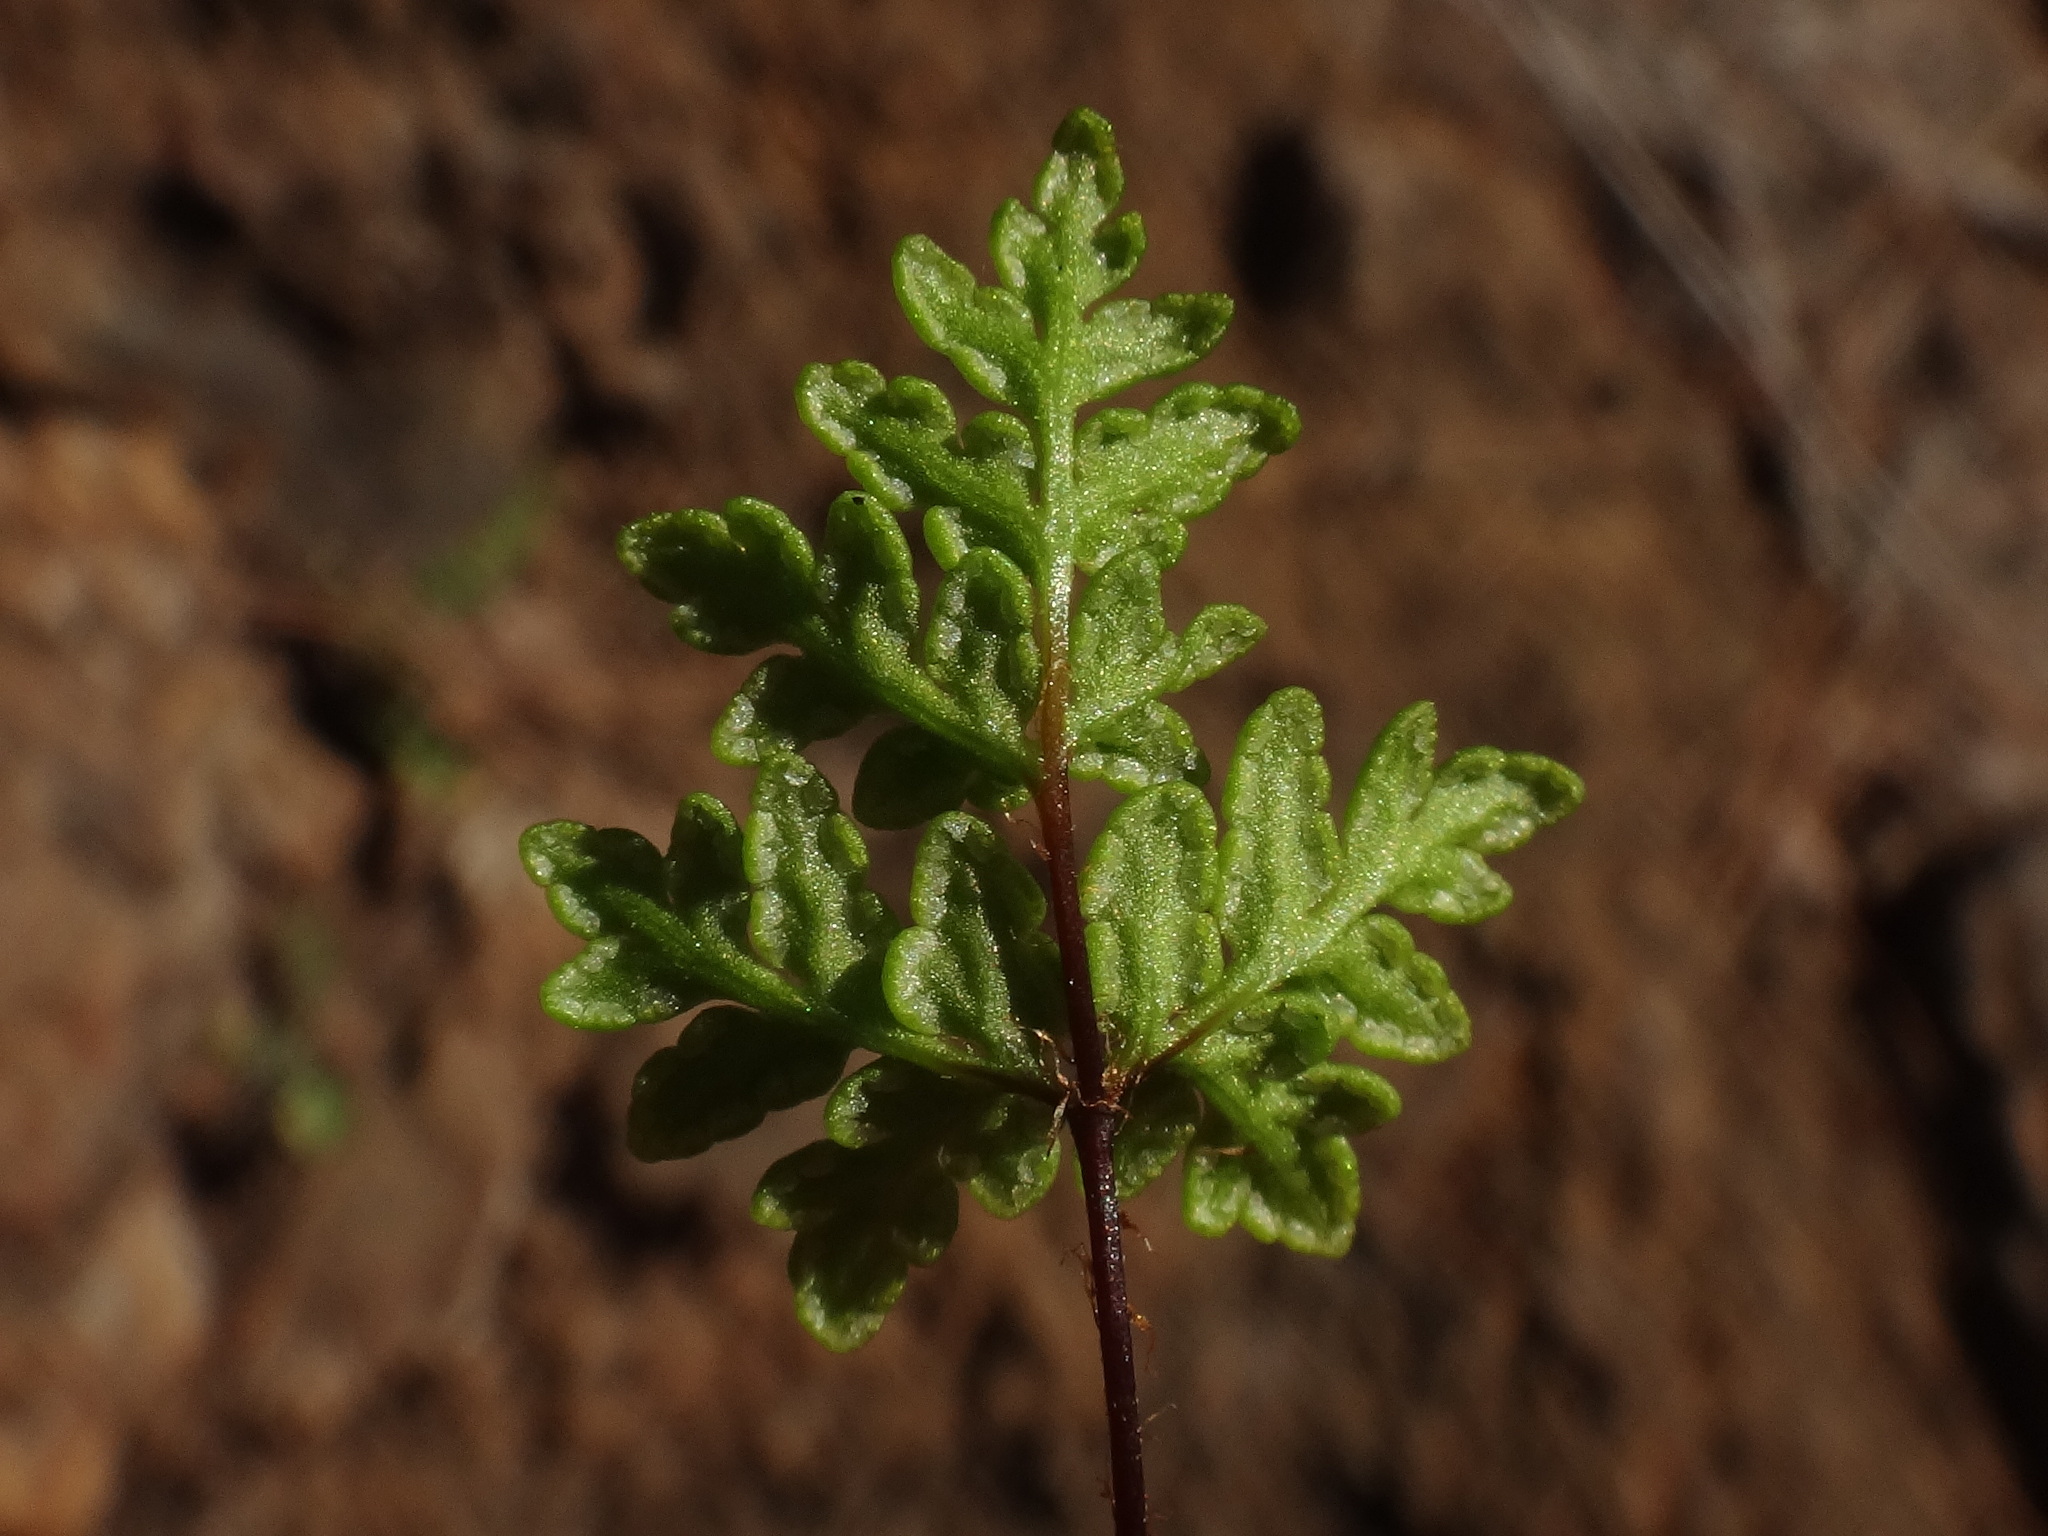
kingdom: Plantae
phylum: Tracheophyta
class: Polypodiopsida
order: Polypodiales
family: Pteridaceae
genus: Oeosporangium
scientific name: Oeosporangium guanchicum
